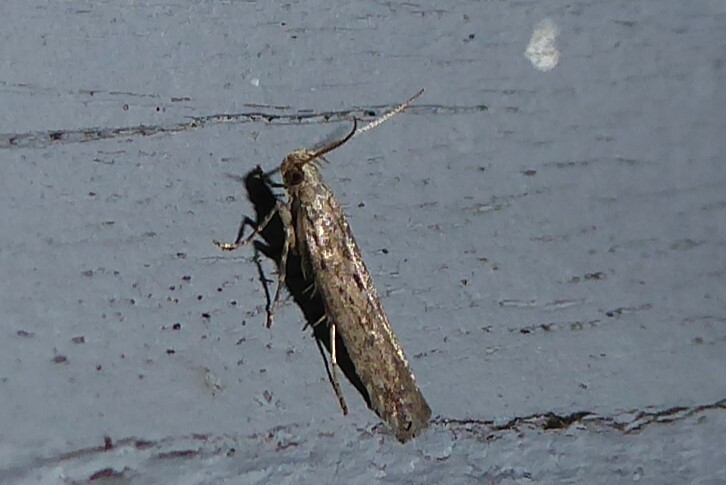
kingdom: Animalia
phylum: Arthropoda
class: Insecta
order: Lepidoptera
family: Gelechiidae
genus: Phthorimaea
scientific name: Phthorimaea operculella
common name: Potato tuber moth
